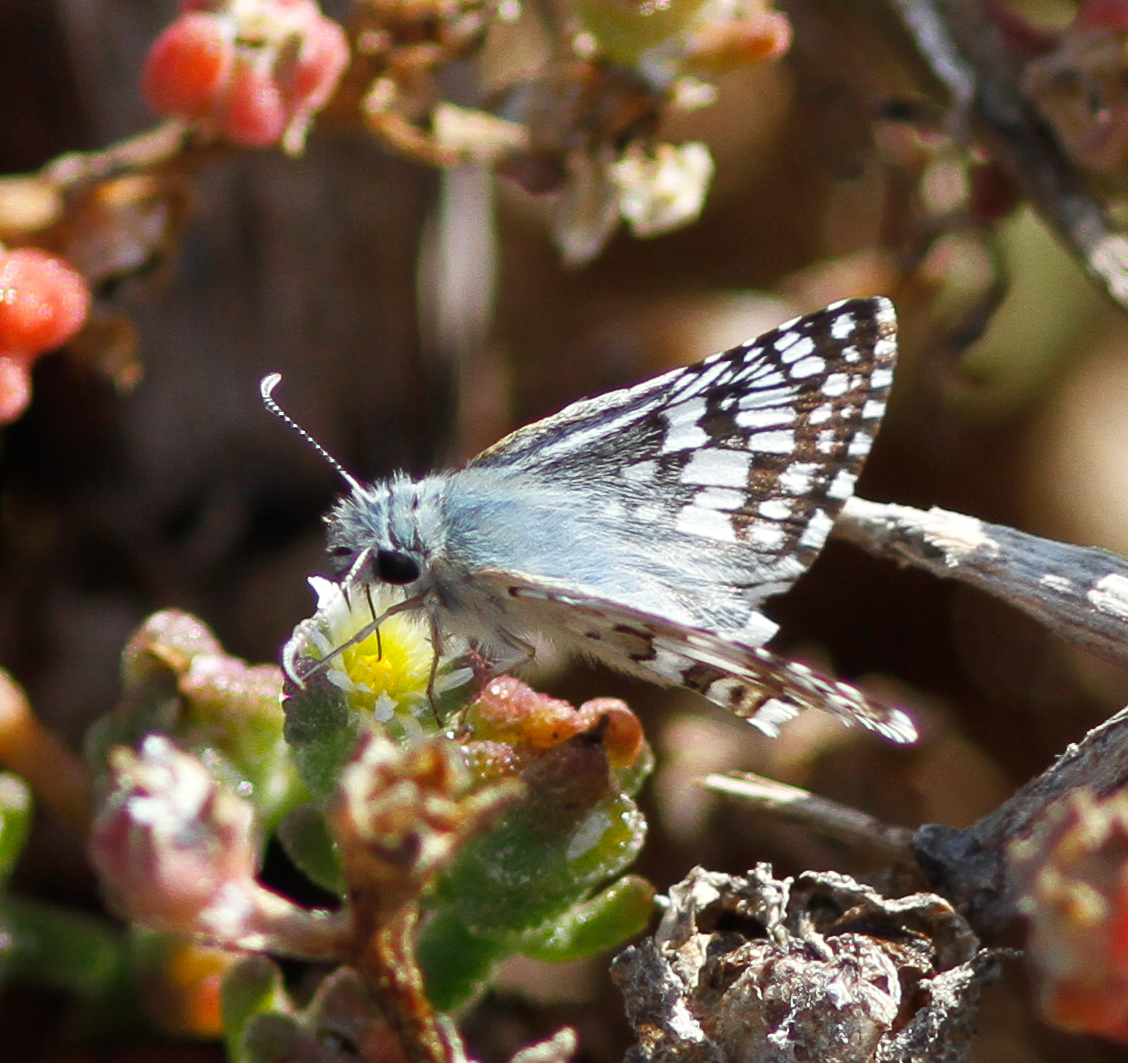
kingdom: Animalia
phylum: Arthropoda
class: Insecta
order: Lepidoptera
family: Hesperiidae
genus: Burnsius
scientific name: Burnsius albezens
